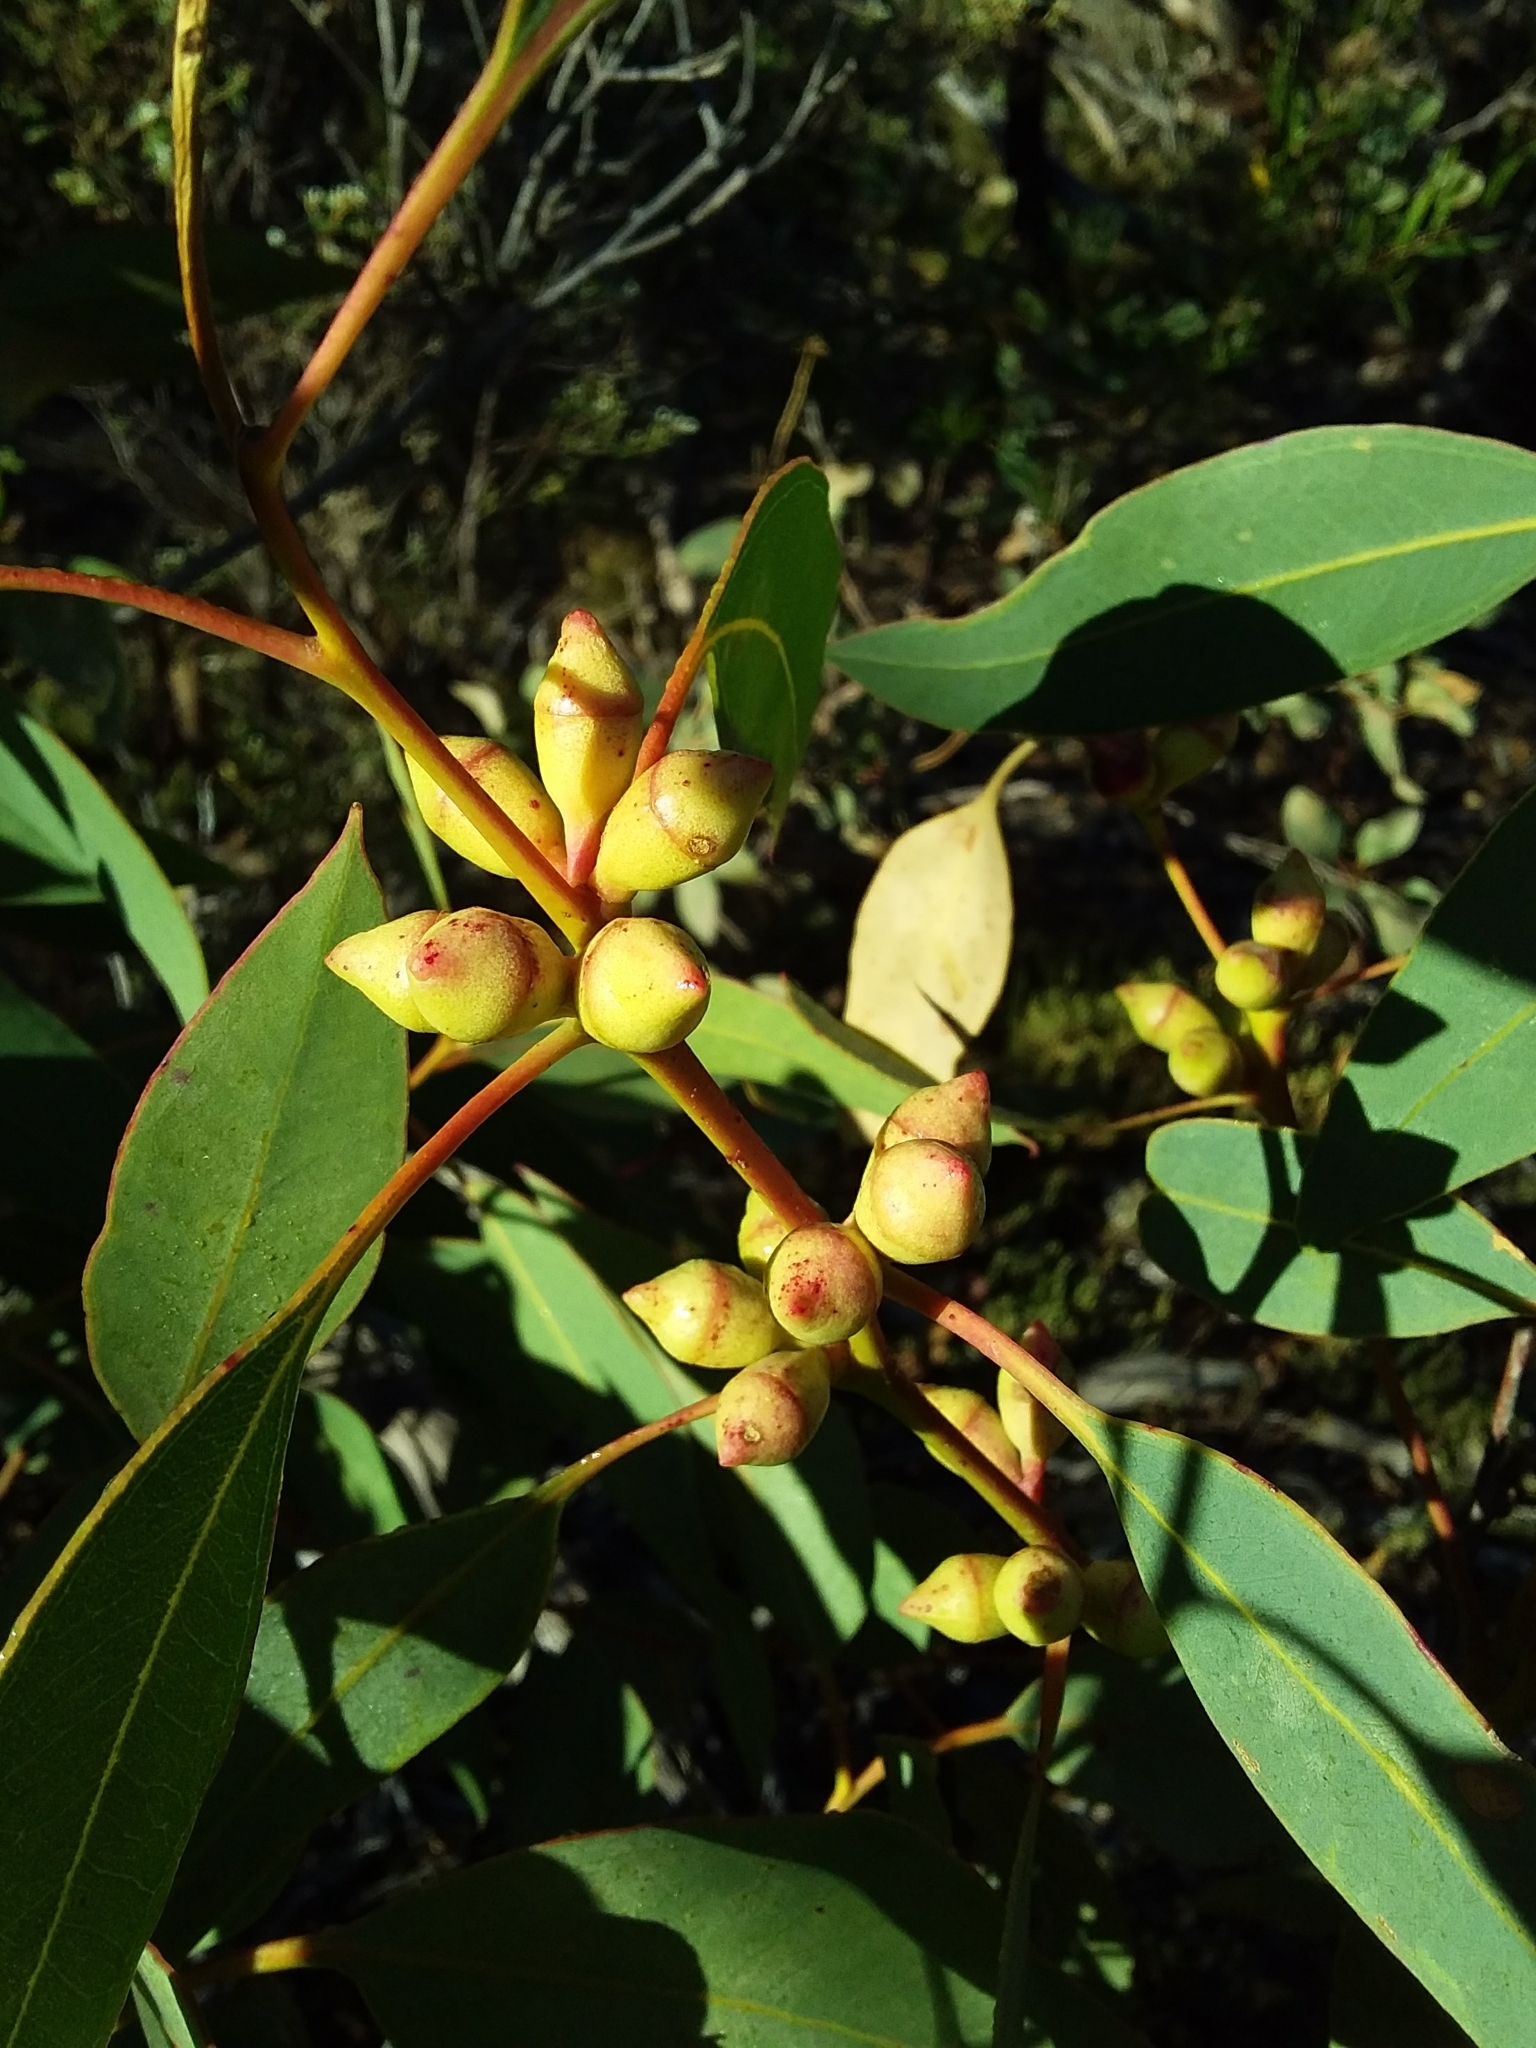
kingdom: Plantae
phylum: Tracheophyta
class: Magnoliopsida
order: Myrtales
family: Myrtaceae
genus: Eucalyptus
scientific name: Eucalyptus cosmophylla
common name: Bog-gum
